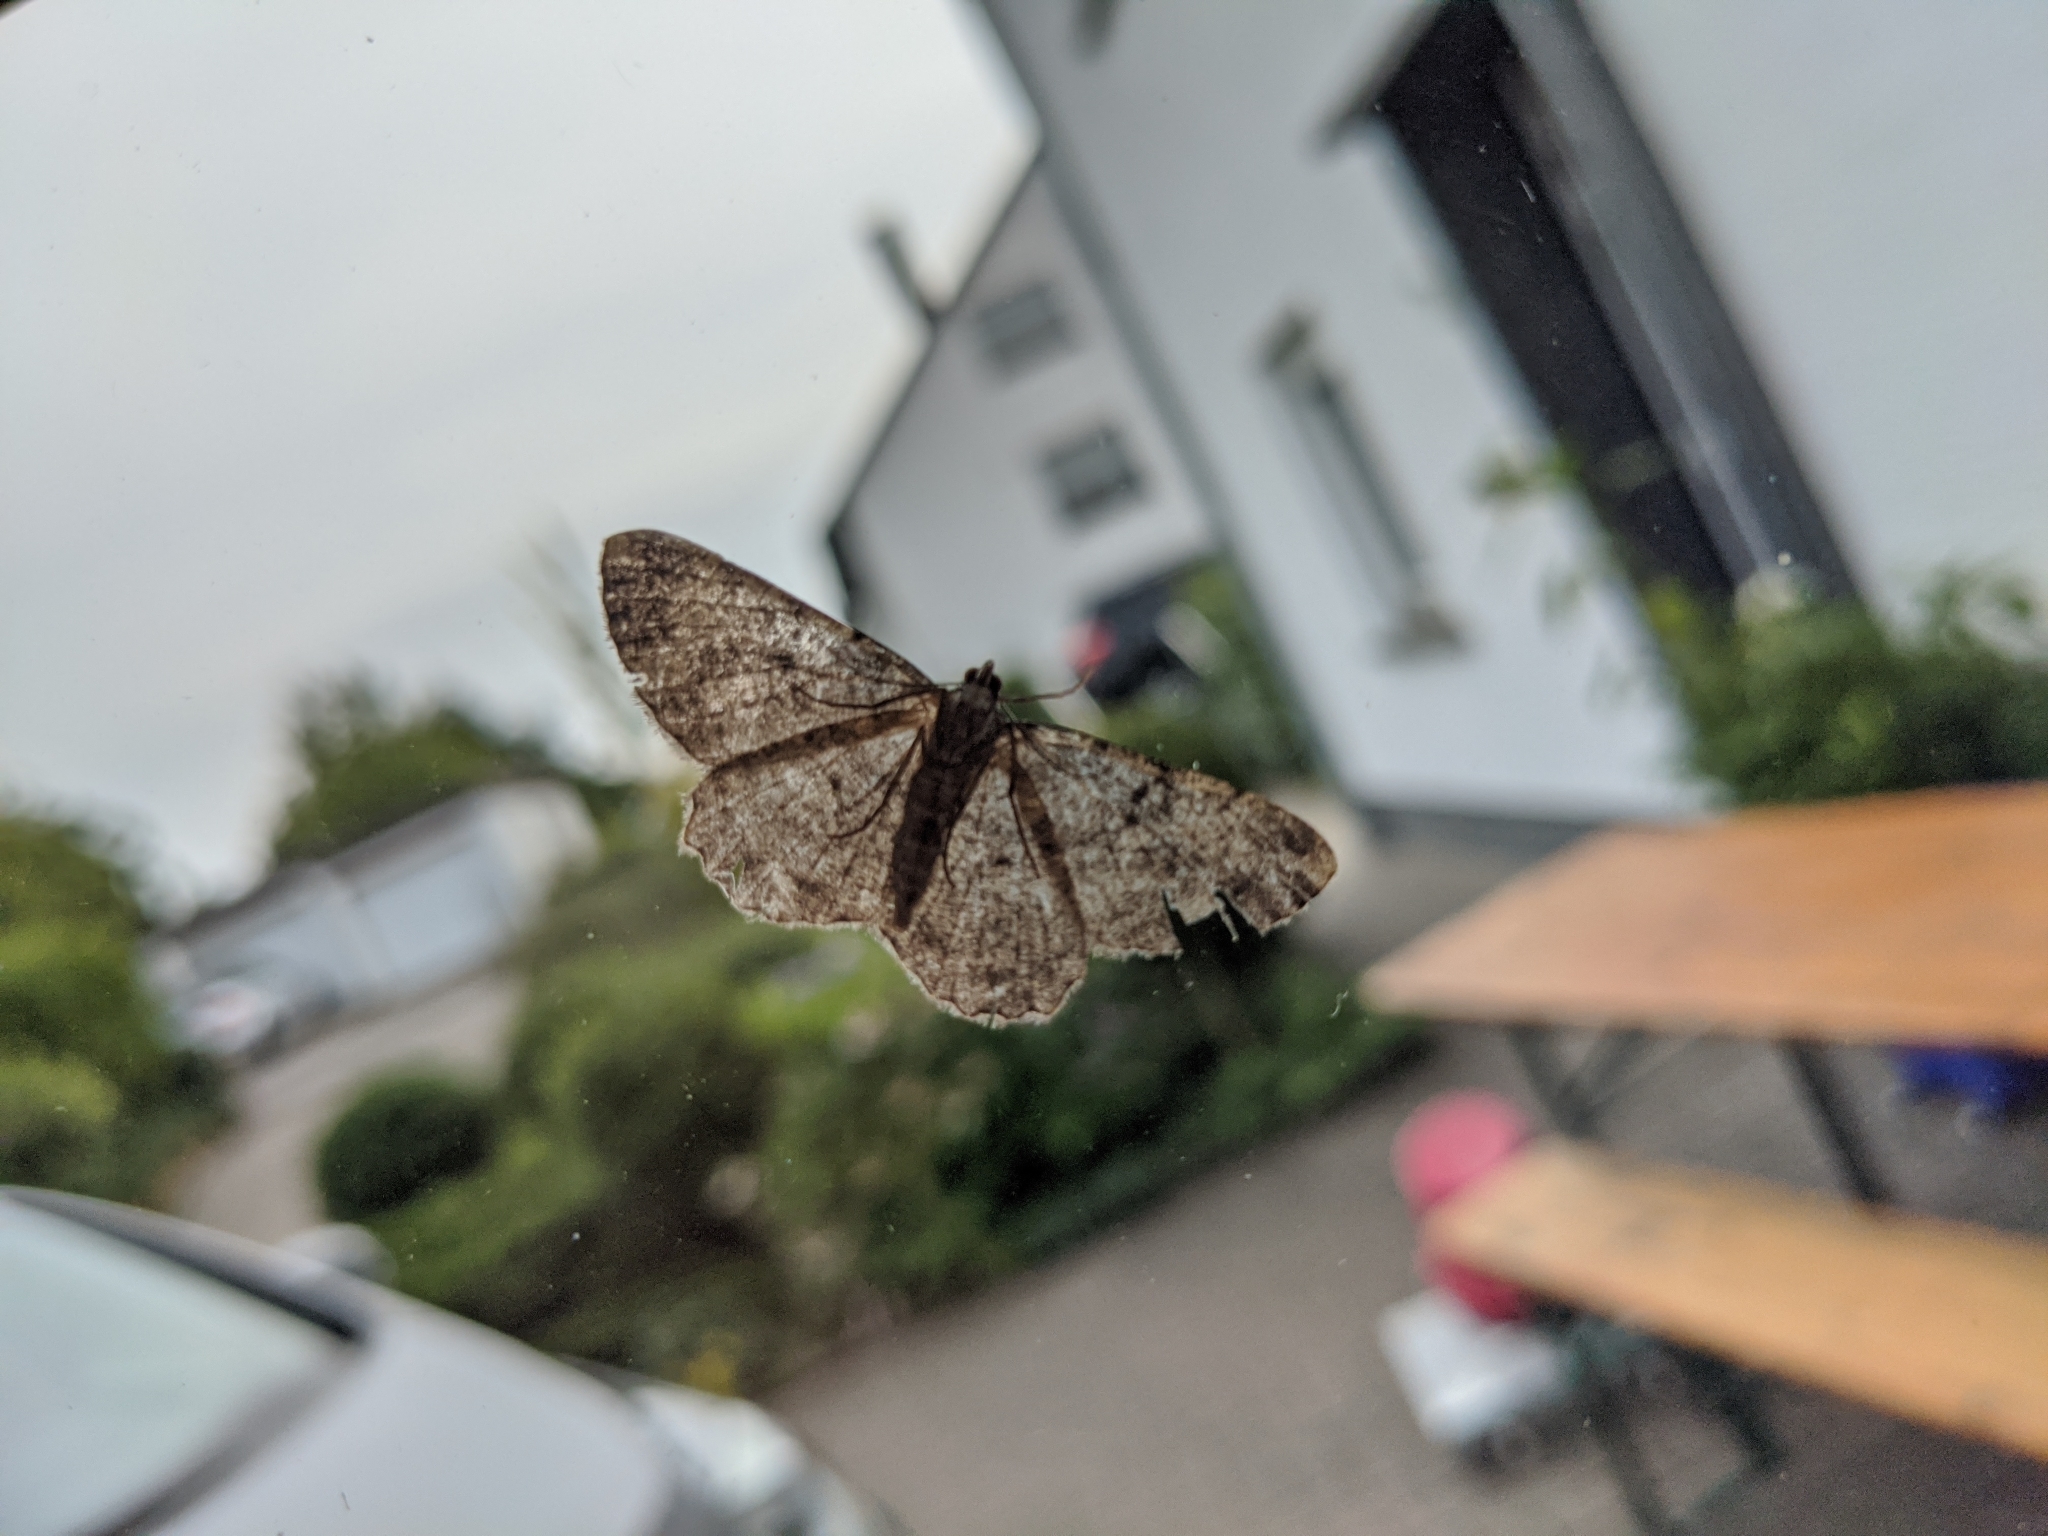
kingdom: Animalia
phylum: Arthropoda
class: Insecta
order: Lepidoptera
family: Geometridae
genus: Peribatodes
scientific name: Peribatodes rhomboidaria
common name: Willow beauty
